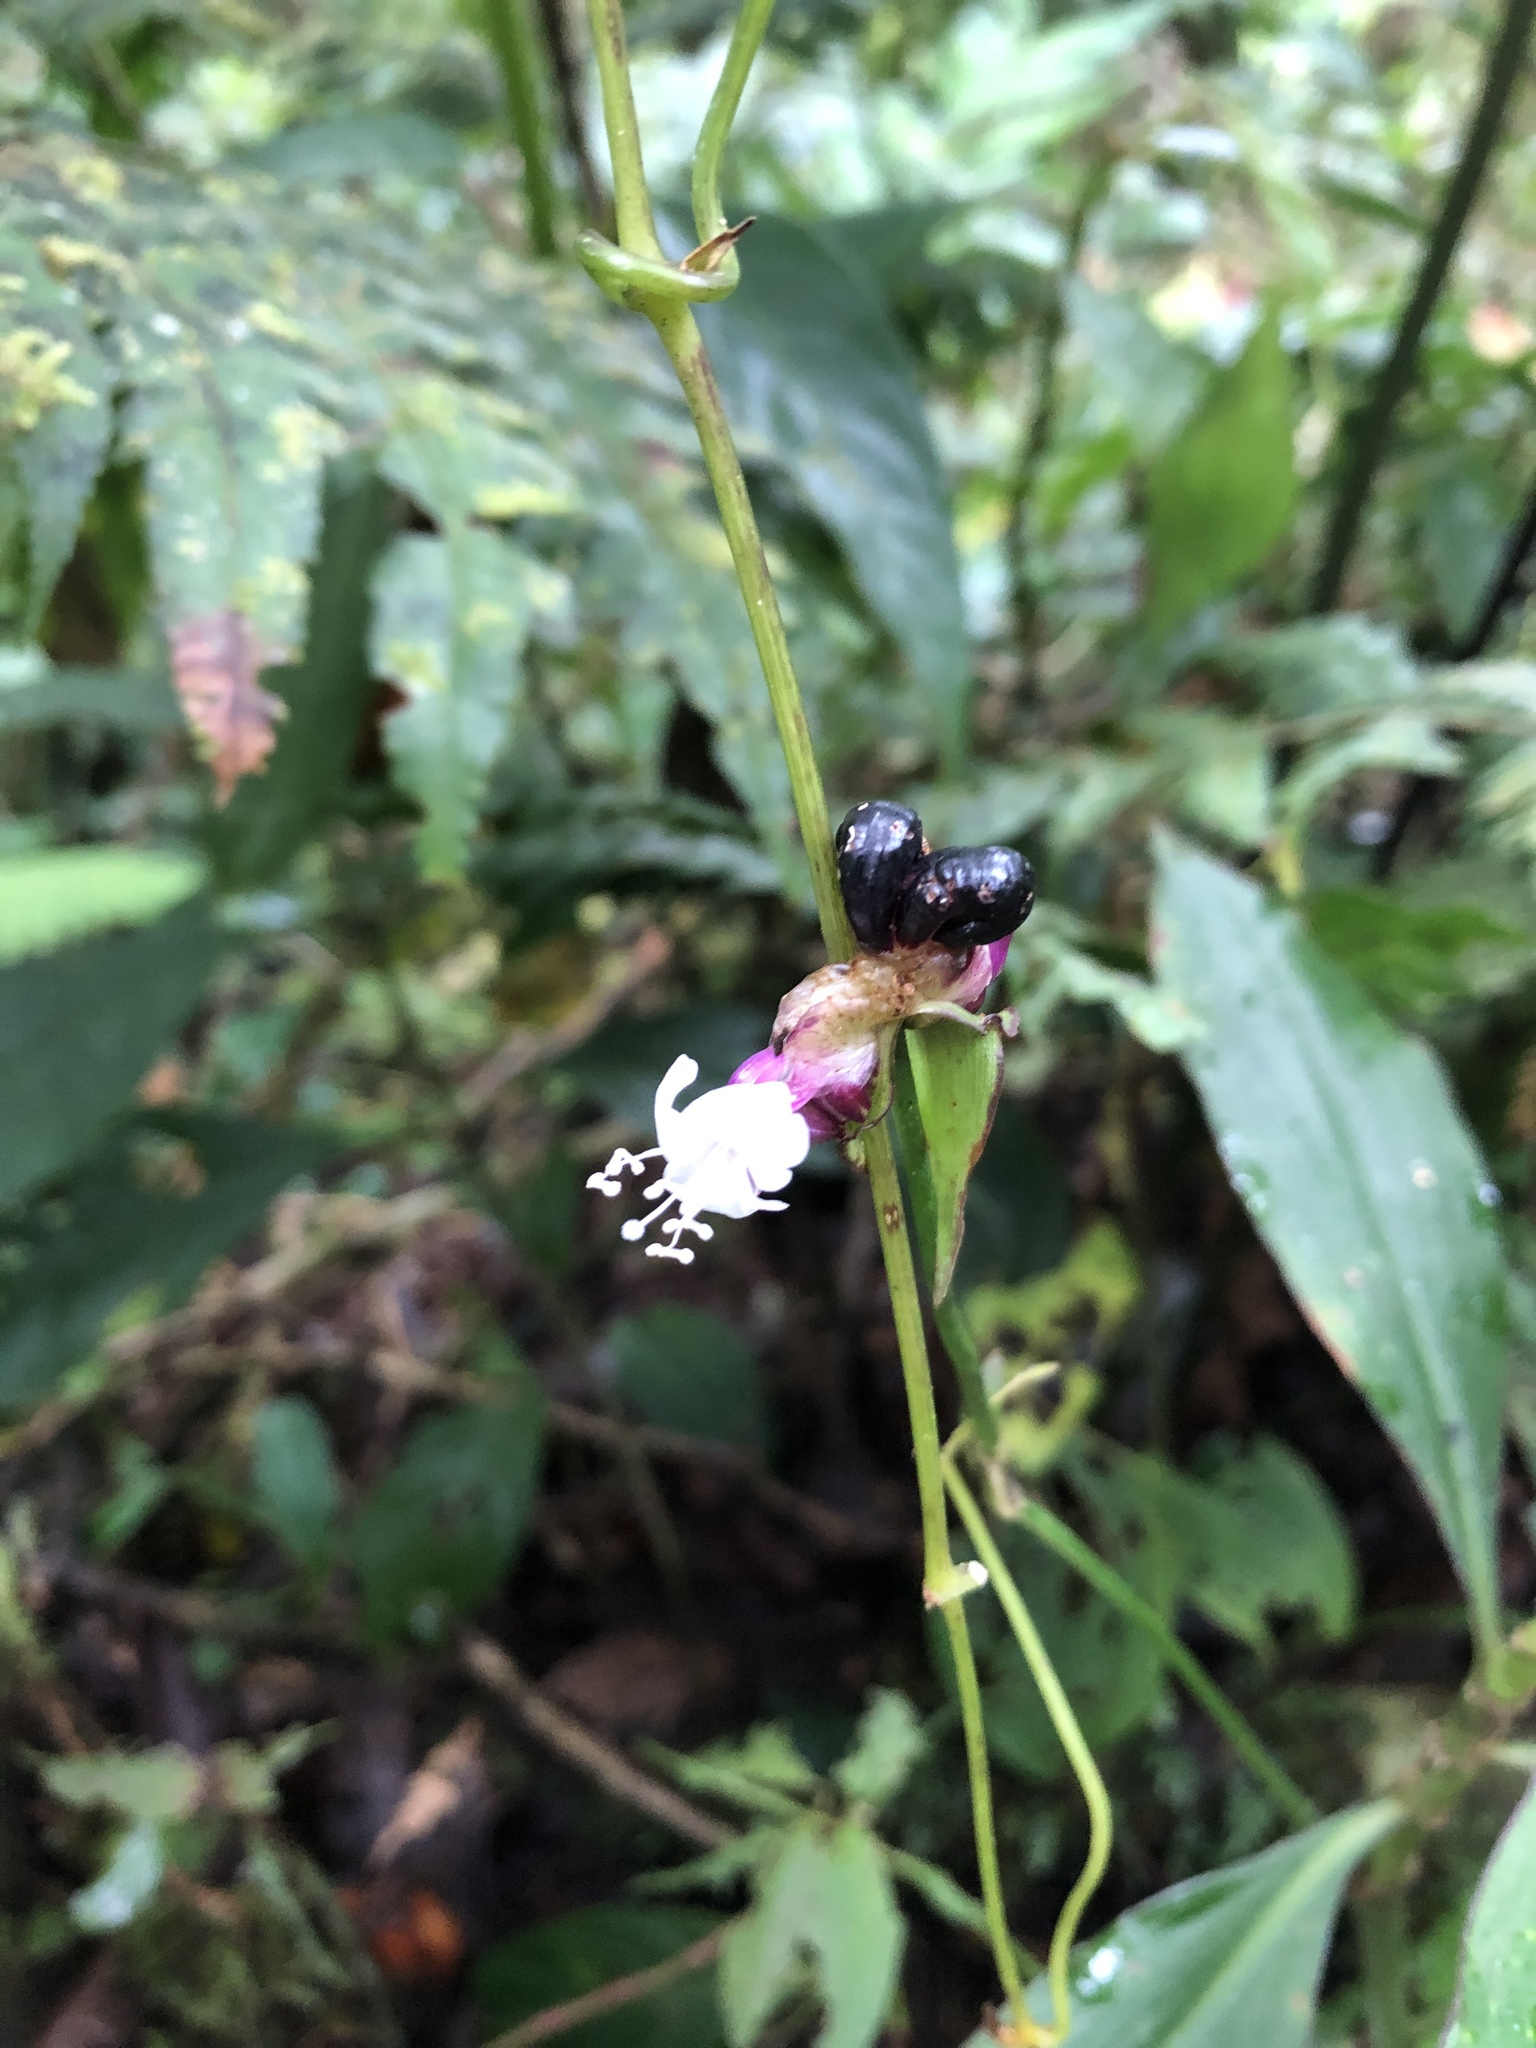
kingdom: Plantae
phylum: Tracheophyta
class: Liliopsida
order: Commelinales
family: Commelinaceae
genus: Tradescantia
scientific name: Tradescantia zanonia
